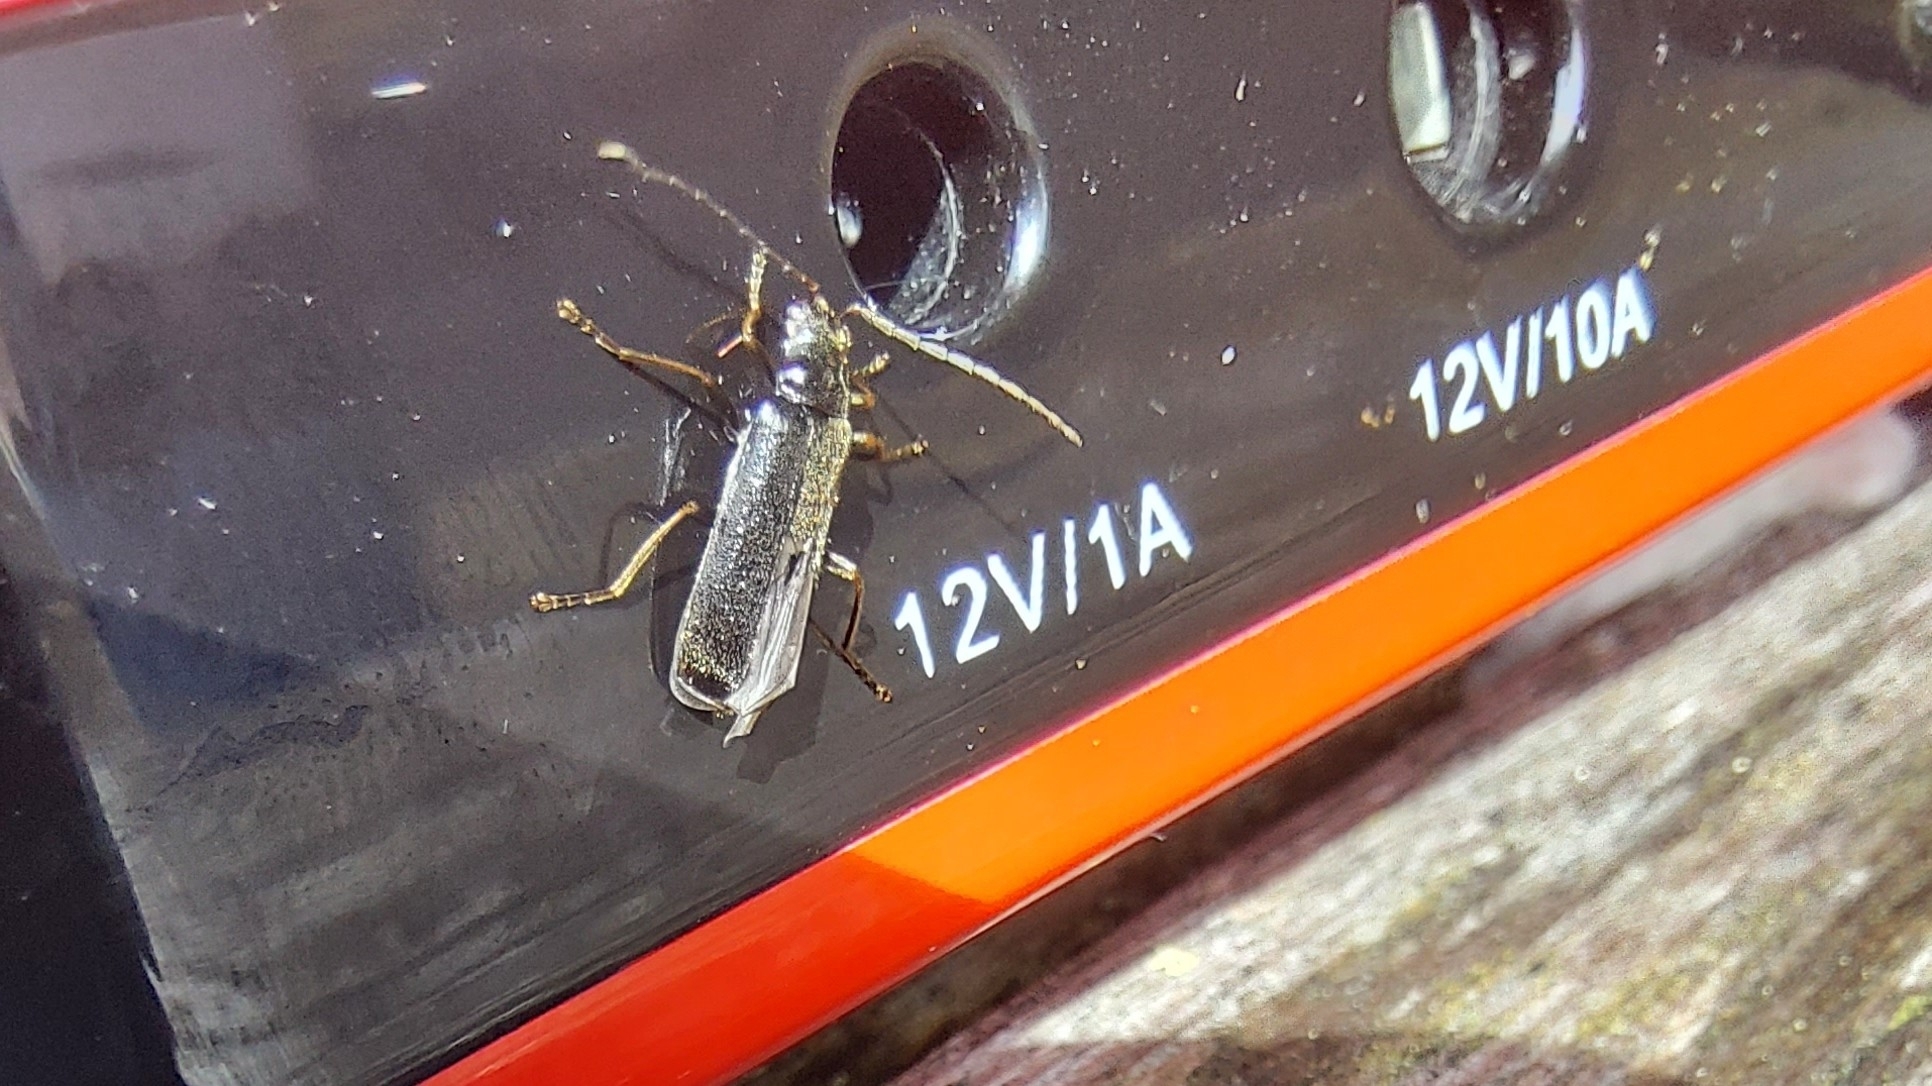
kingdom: Animalia
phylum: Arthropoda
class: Insecta
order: Coleoptera
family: Cantharidae
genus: Rhagonycha
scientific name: Rhagonycha atra
